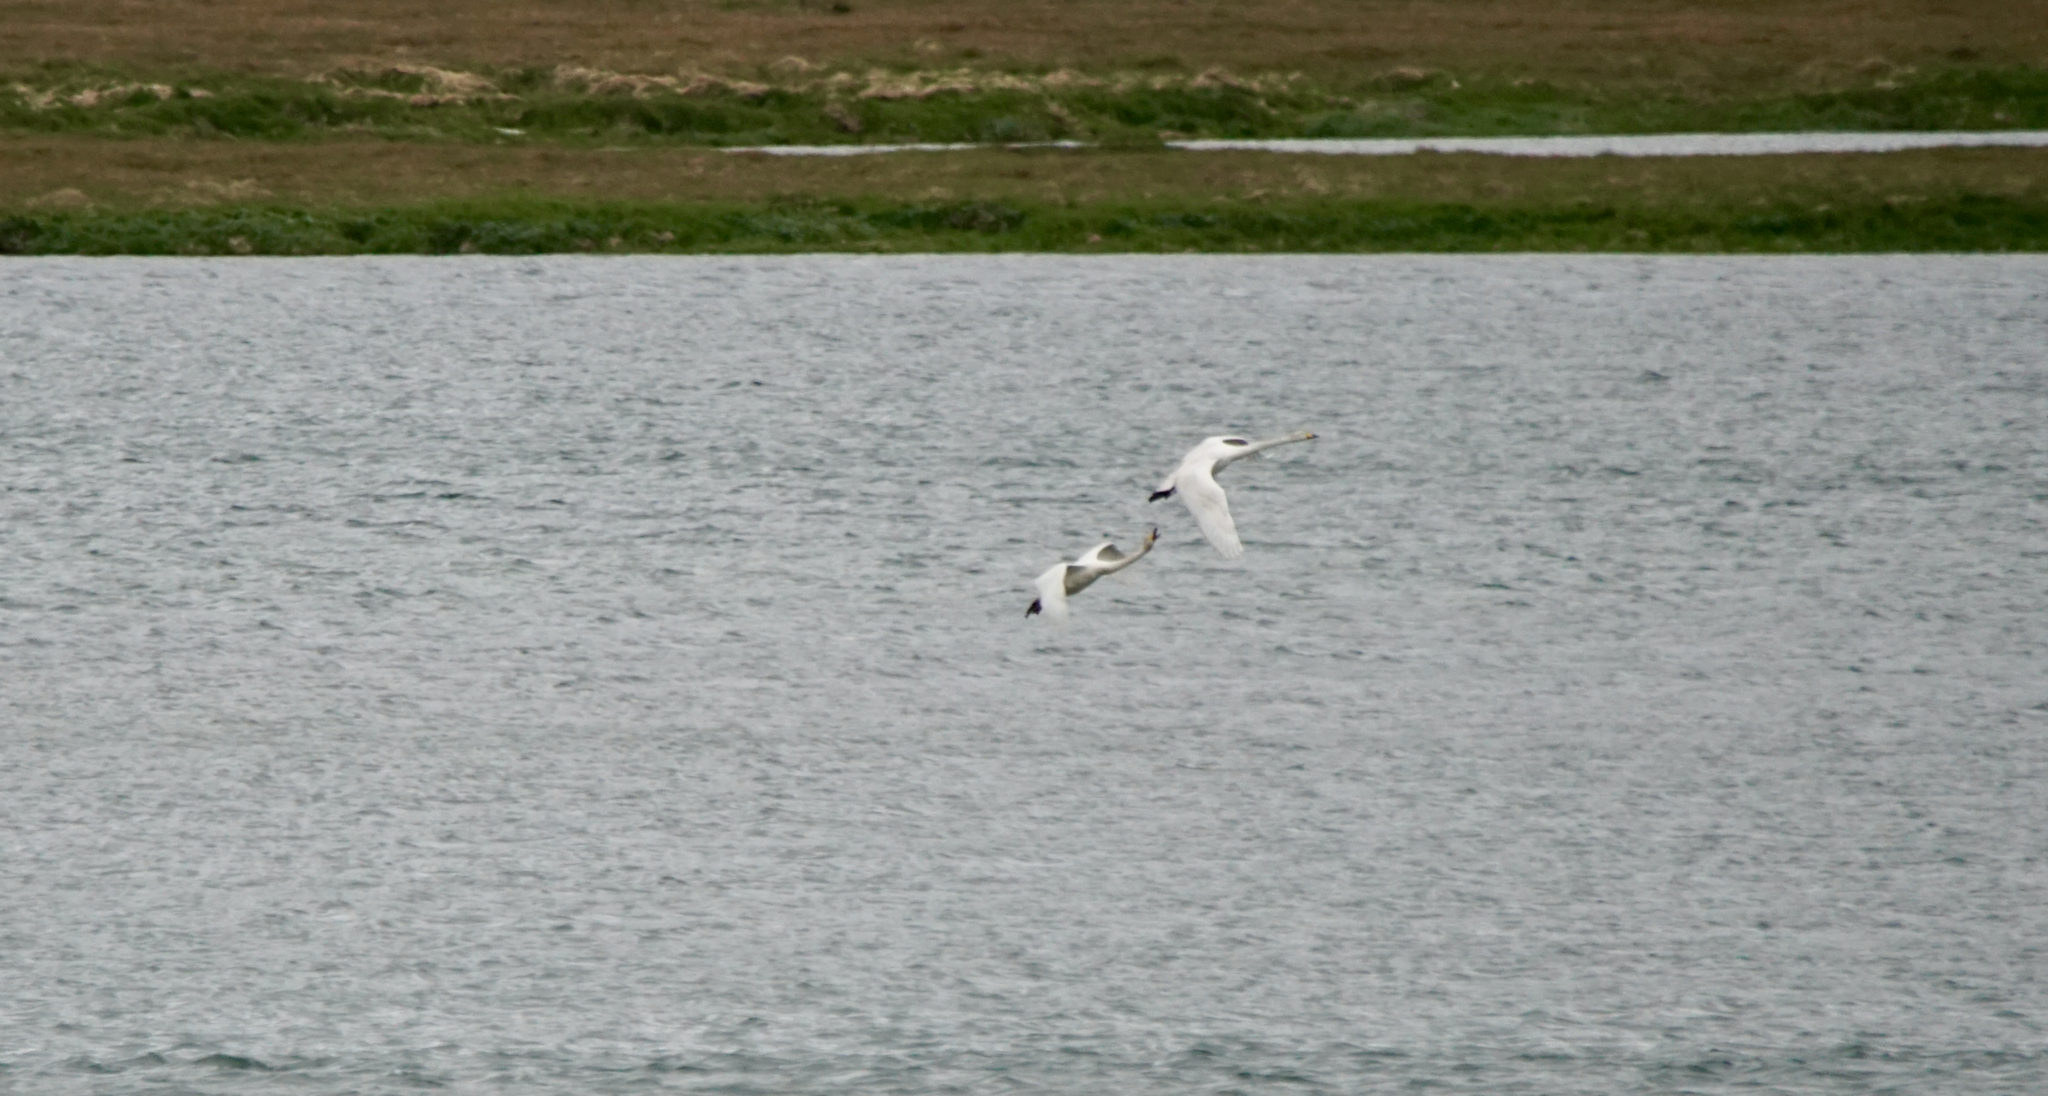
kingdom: Animalia
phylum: Chordata
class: Aves
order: Anseriformes
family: Anatidae
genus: Cygnus
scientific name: Cygnus cygnus
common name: Whooper swan
